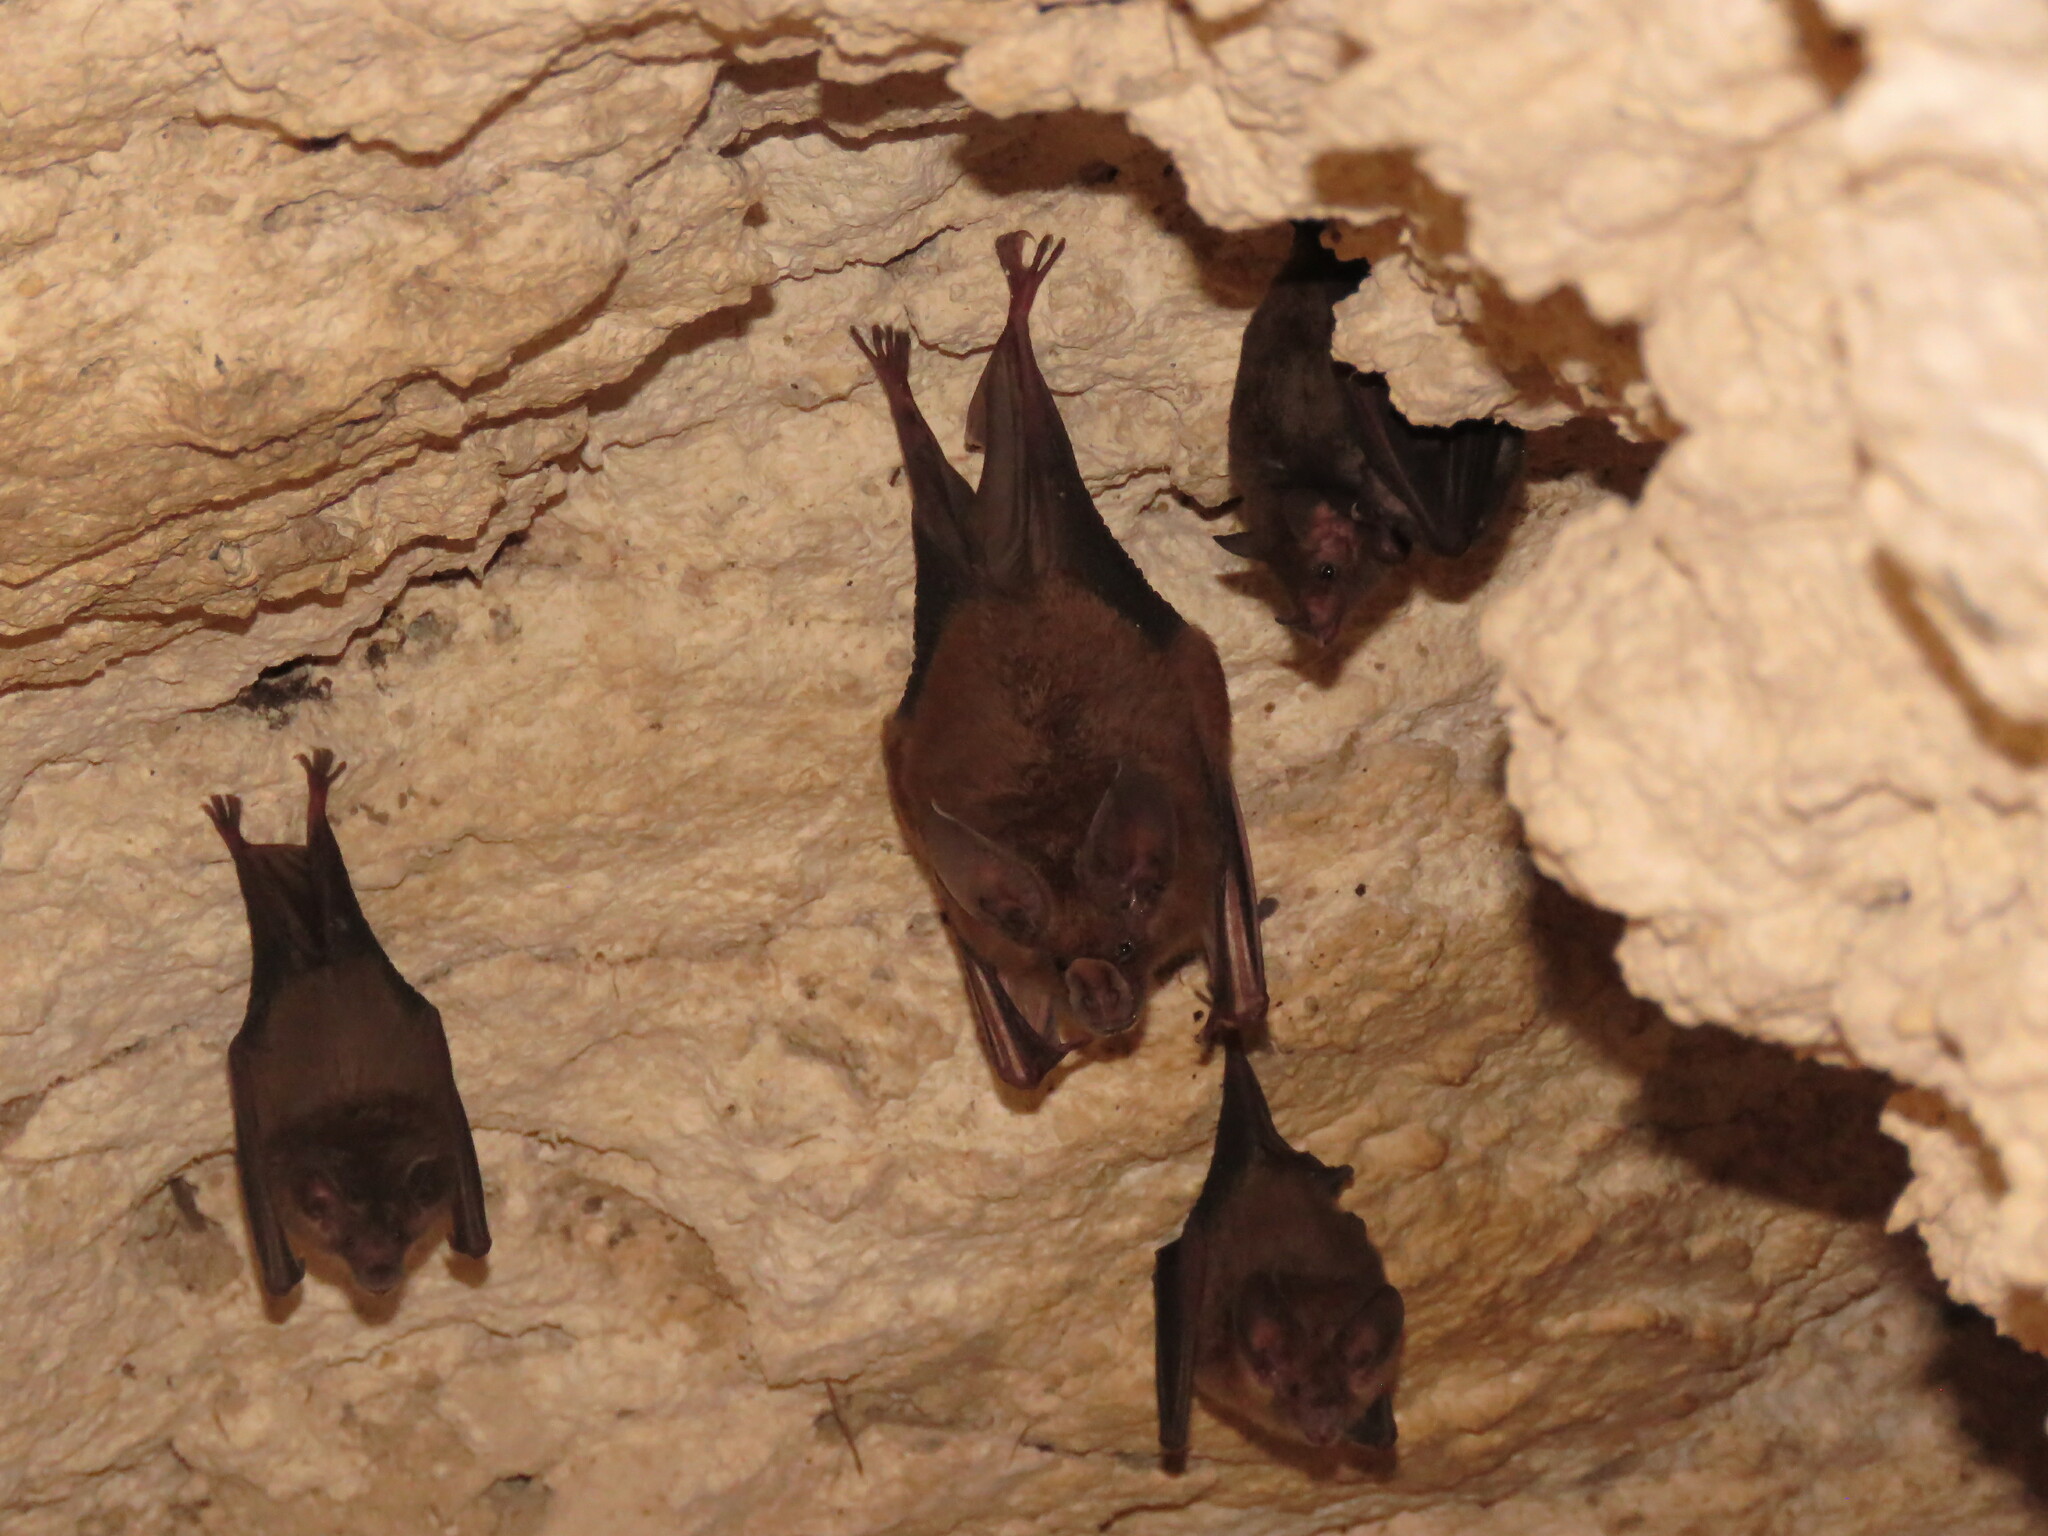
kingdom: Animalia
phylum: Chordata
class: Mammalia
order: Chiroptera
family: Phyllostomidae
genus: Mimon
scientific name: Mimon cozumelae
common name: Cozumelan golden bat
